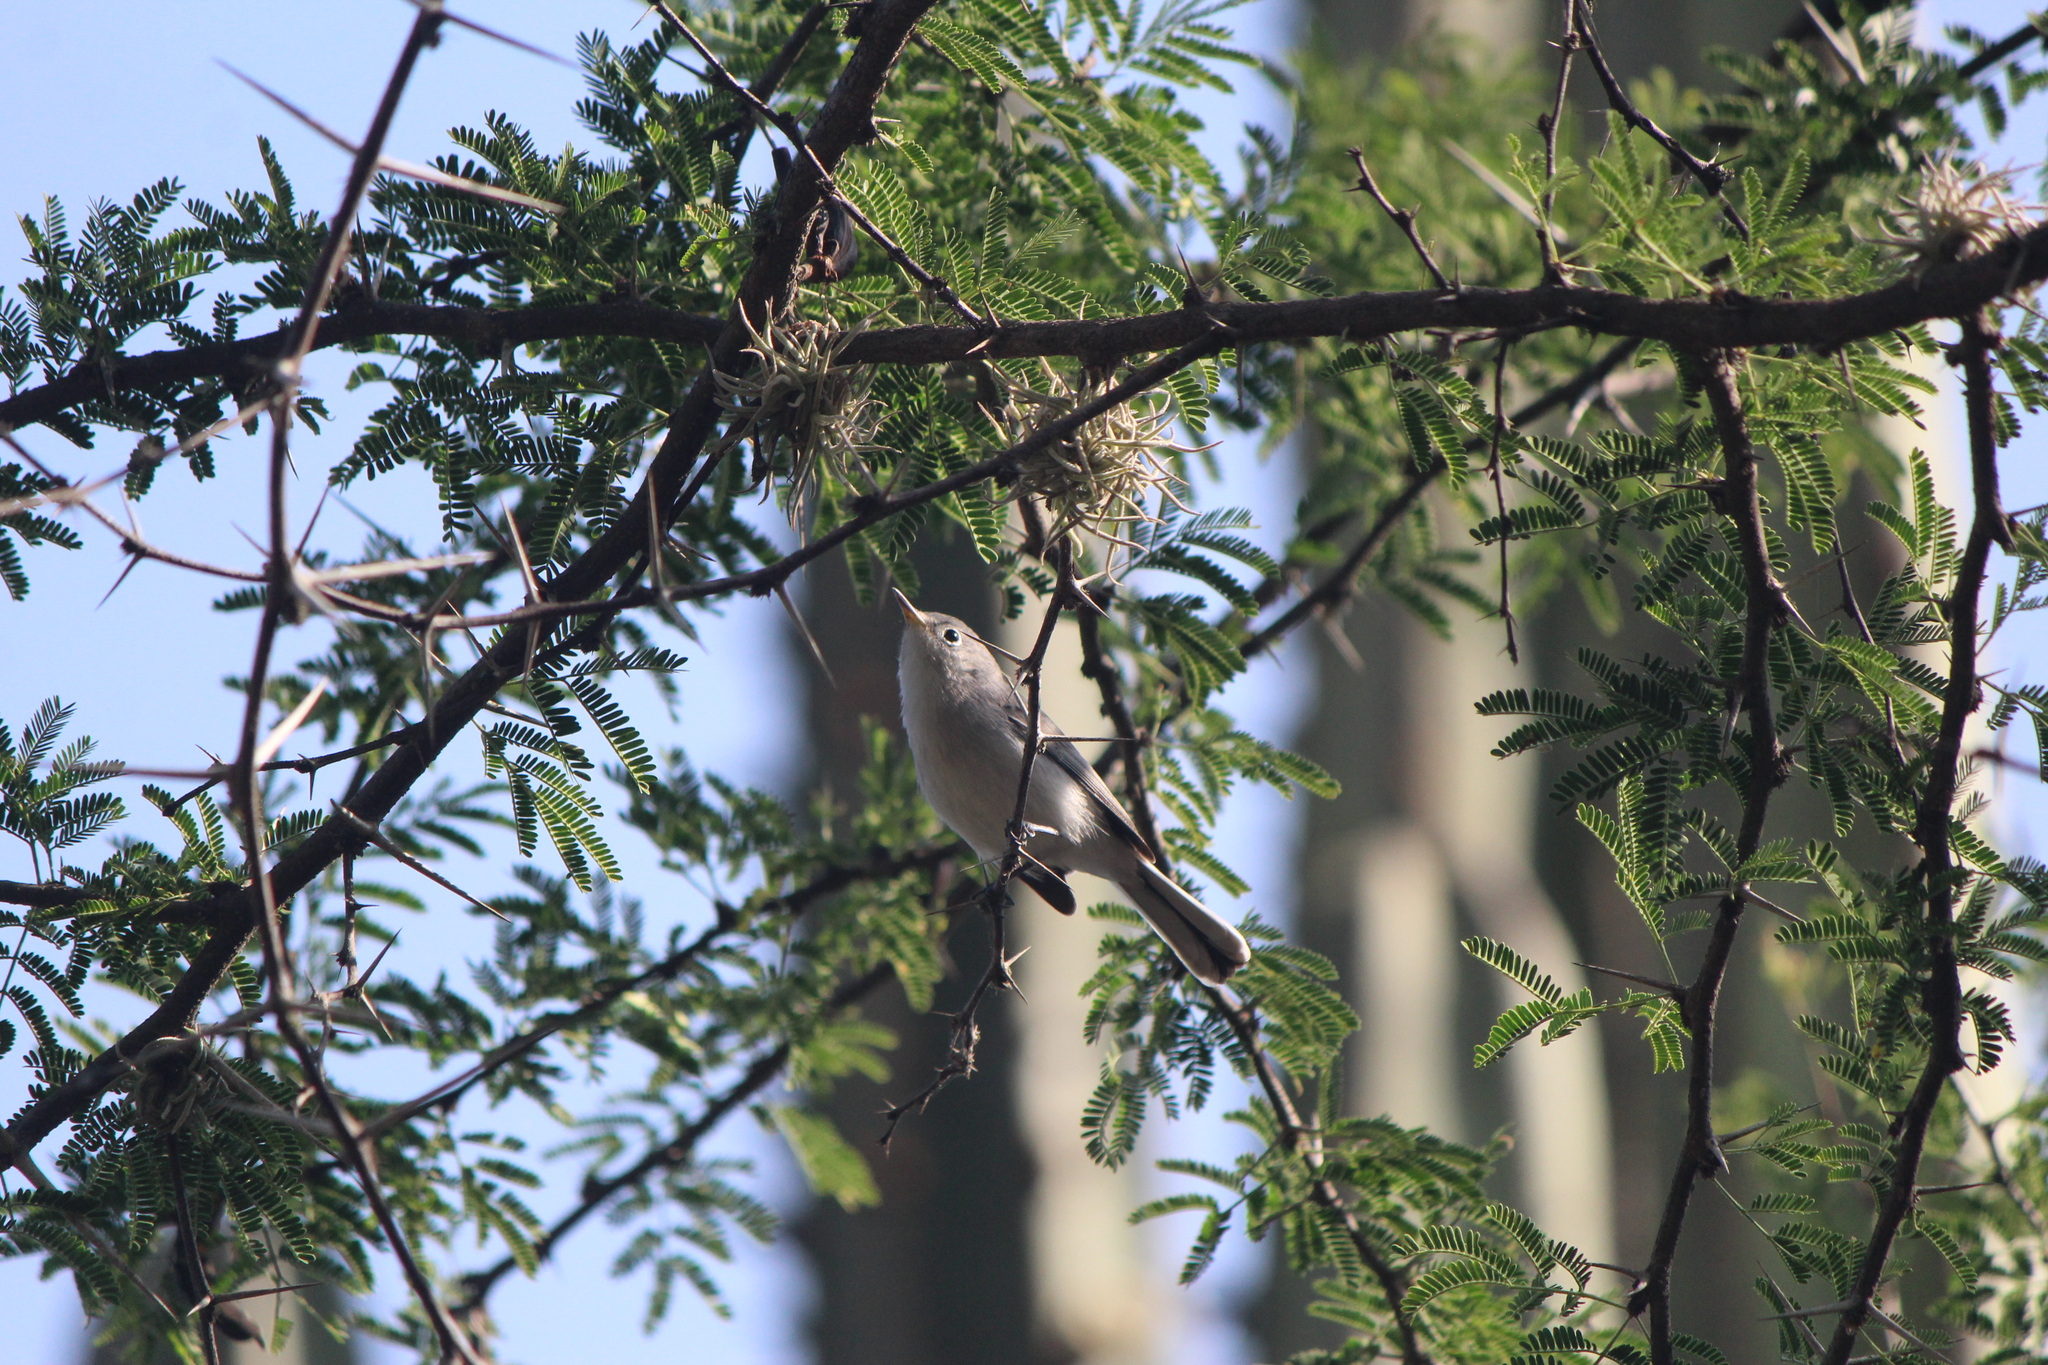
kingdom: Animalia
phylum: Chordata
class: Aves
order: Passeriformes
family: Polioptilidae
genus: Polioptila
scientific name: Polioptila caerulea
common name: Blue-gray gnatcatcher
